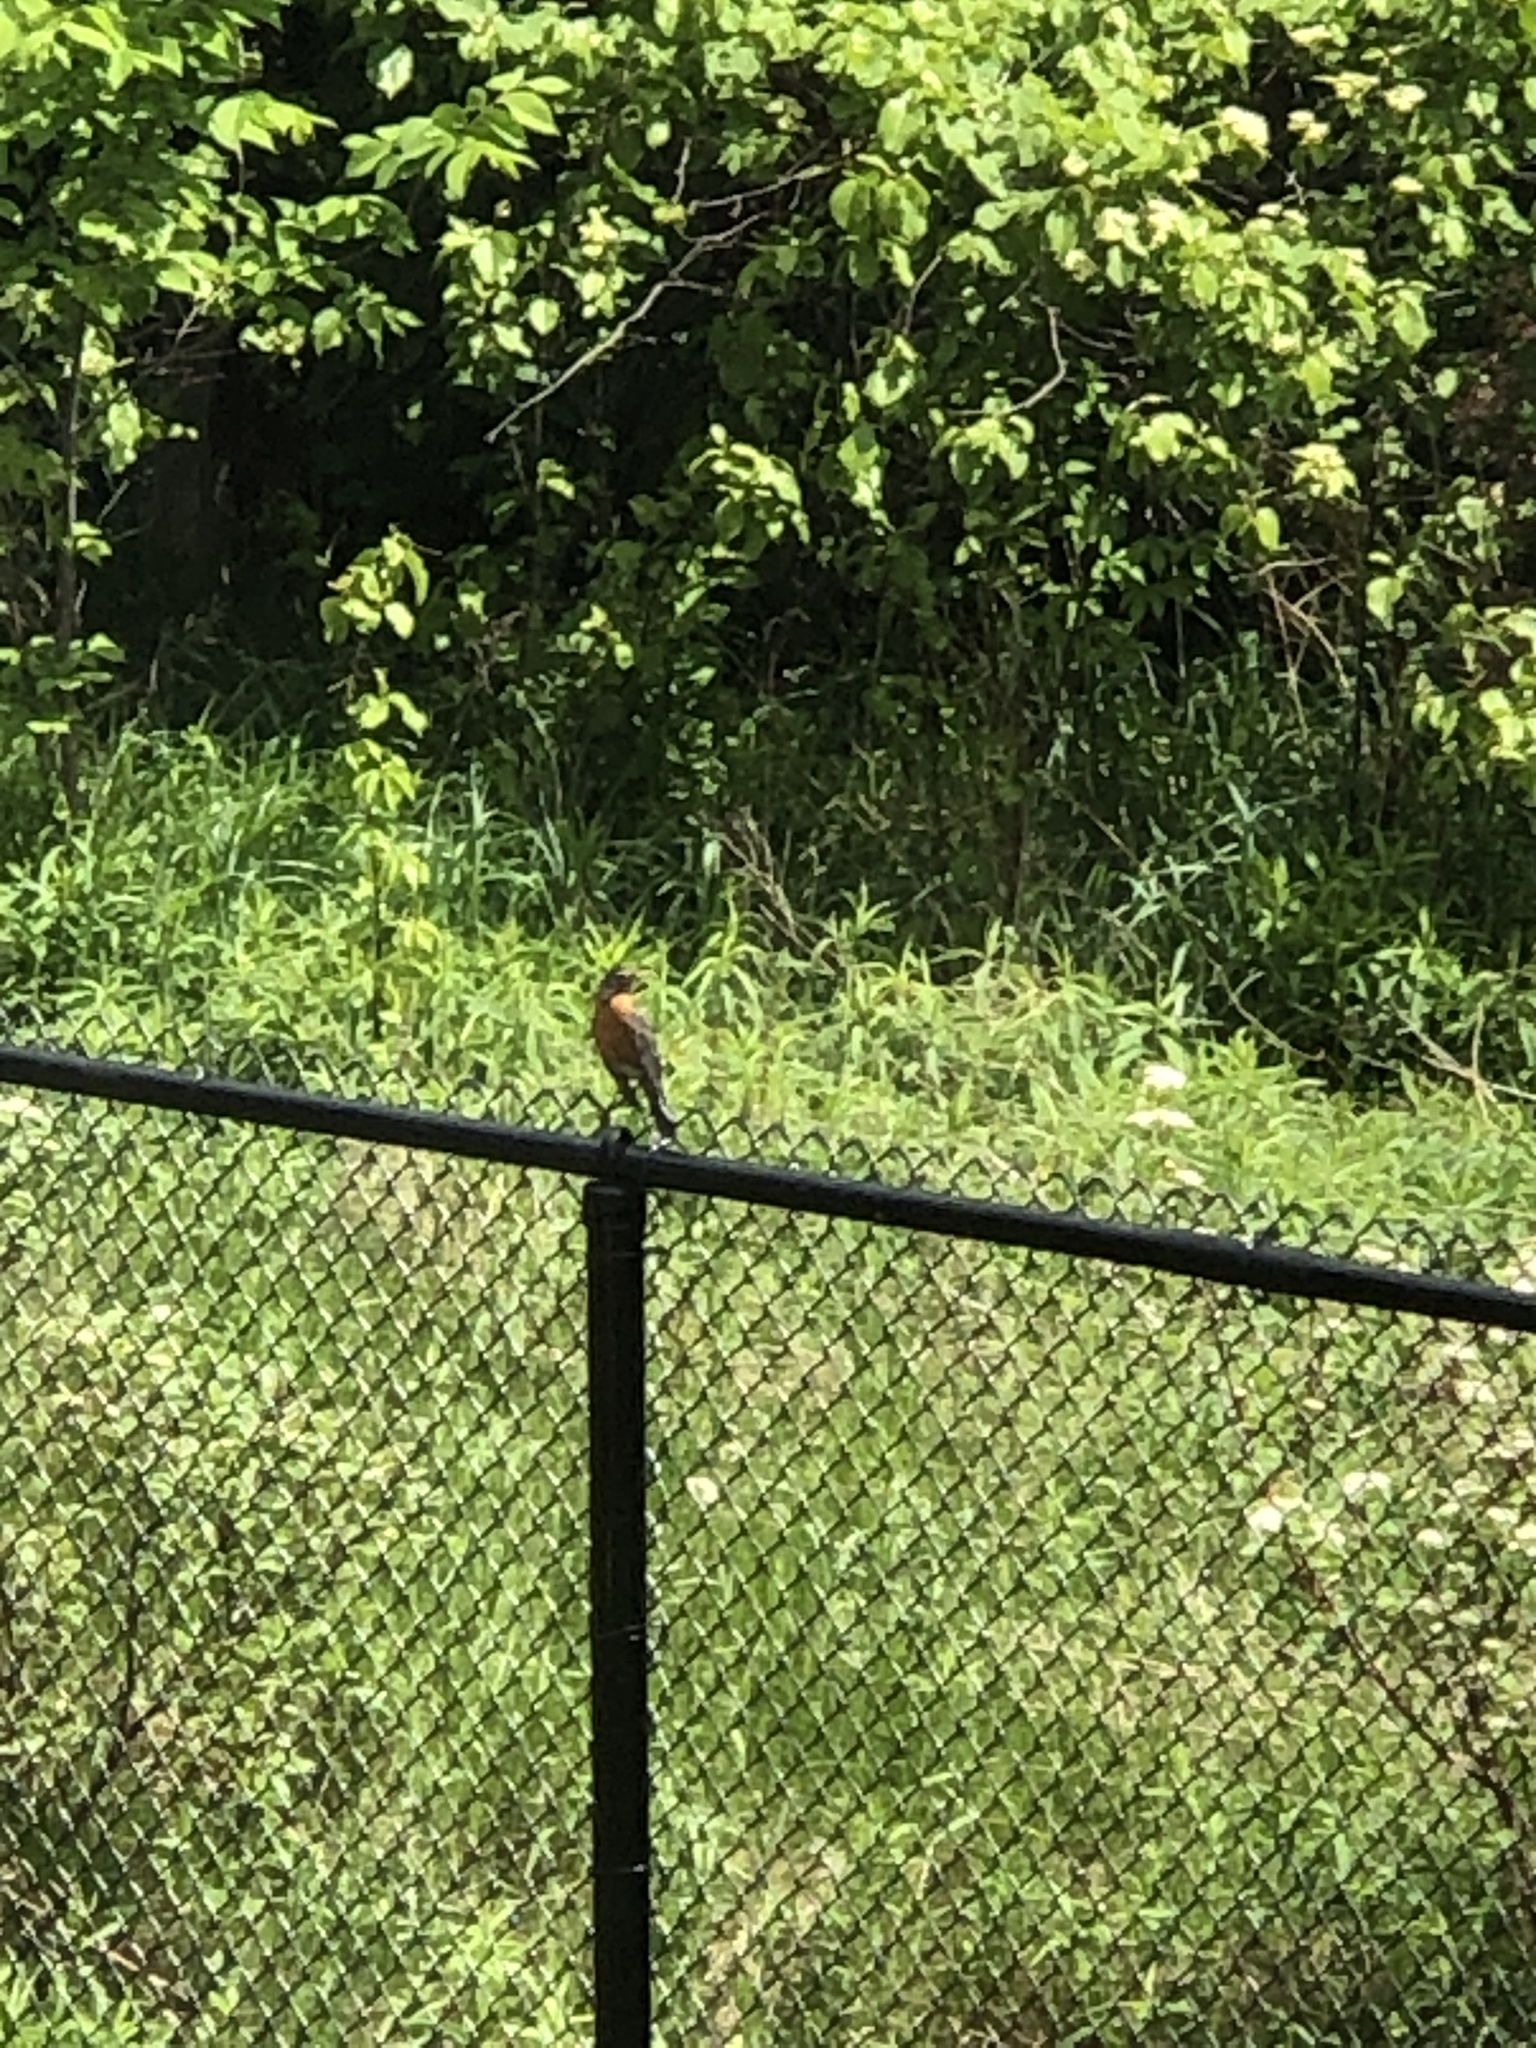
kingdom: Animalia
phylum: Chordata
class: Aves
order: Passeriformes
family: Turdidae
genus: Turdus
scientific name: Turdus migratorius
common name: American robin
